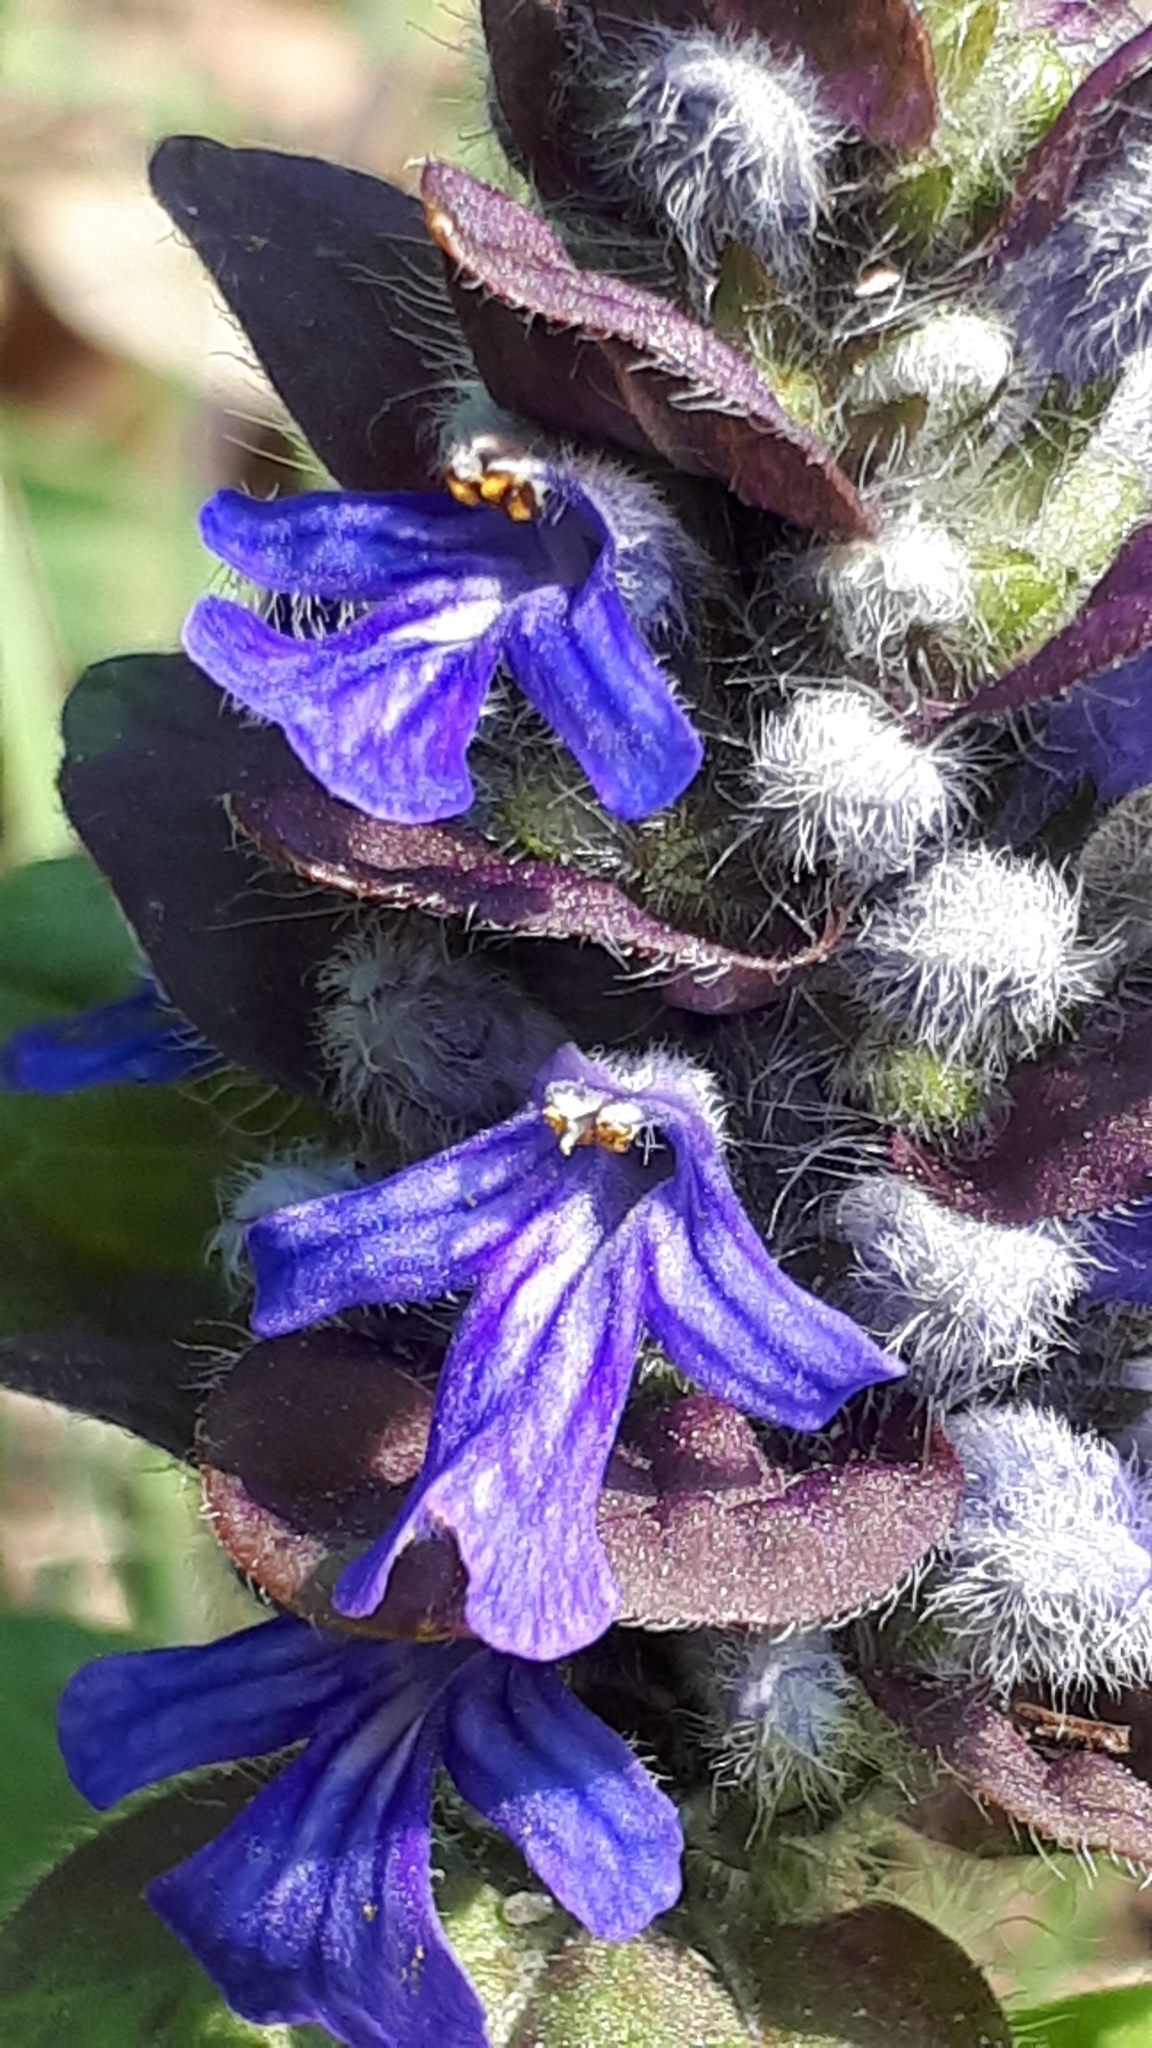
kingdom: Plantae
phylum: Tracheophyta
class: Magnoliopsida
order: Lamiales
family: Lamiaceae
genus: Ajuga
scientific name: Ajuga reptans
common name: Bugle
